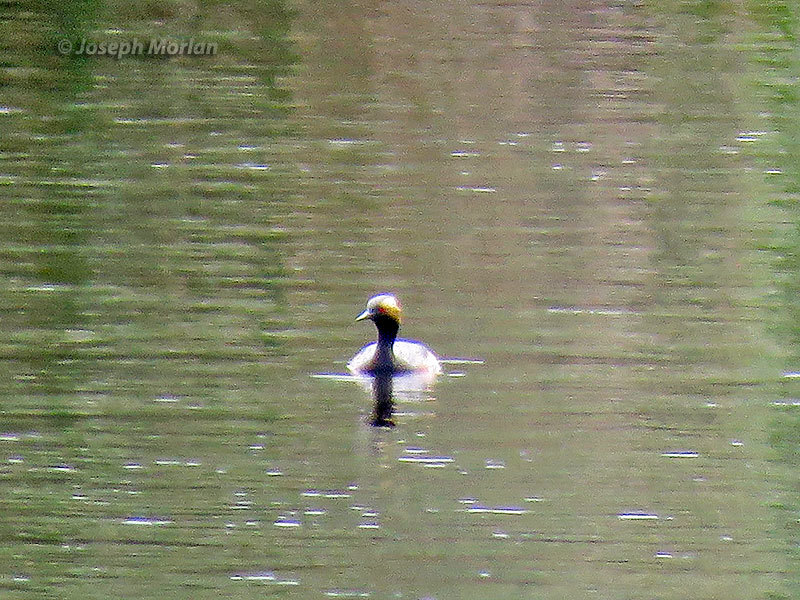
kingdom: Animalia
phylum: Chordata
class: Aves
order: Podicipediformes
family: Podicipedidae
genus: Podiceps
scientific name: Podiceps nigricollis
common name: Black-necked grebe
